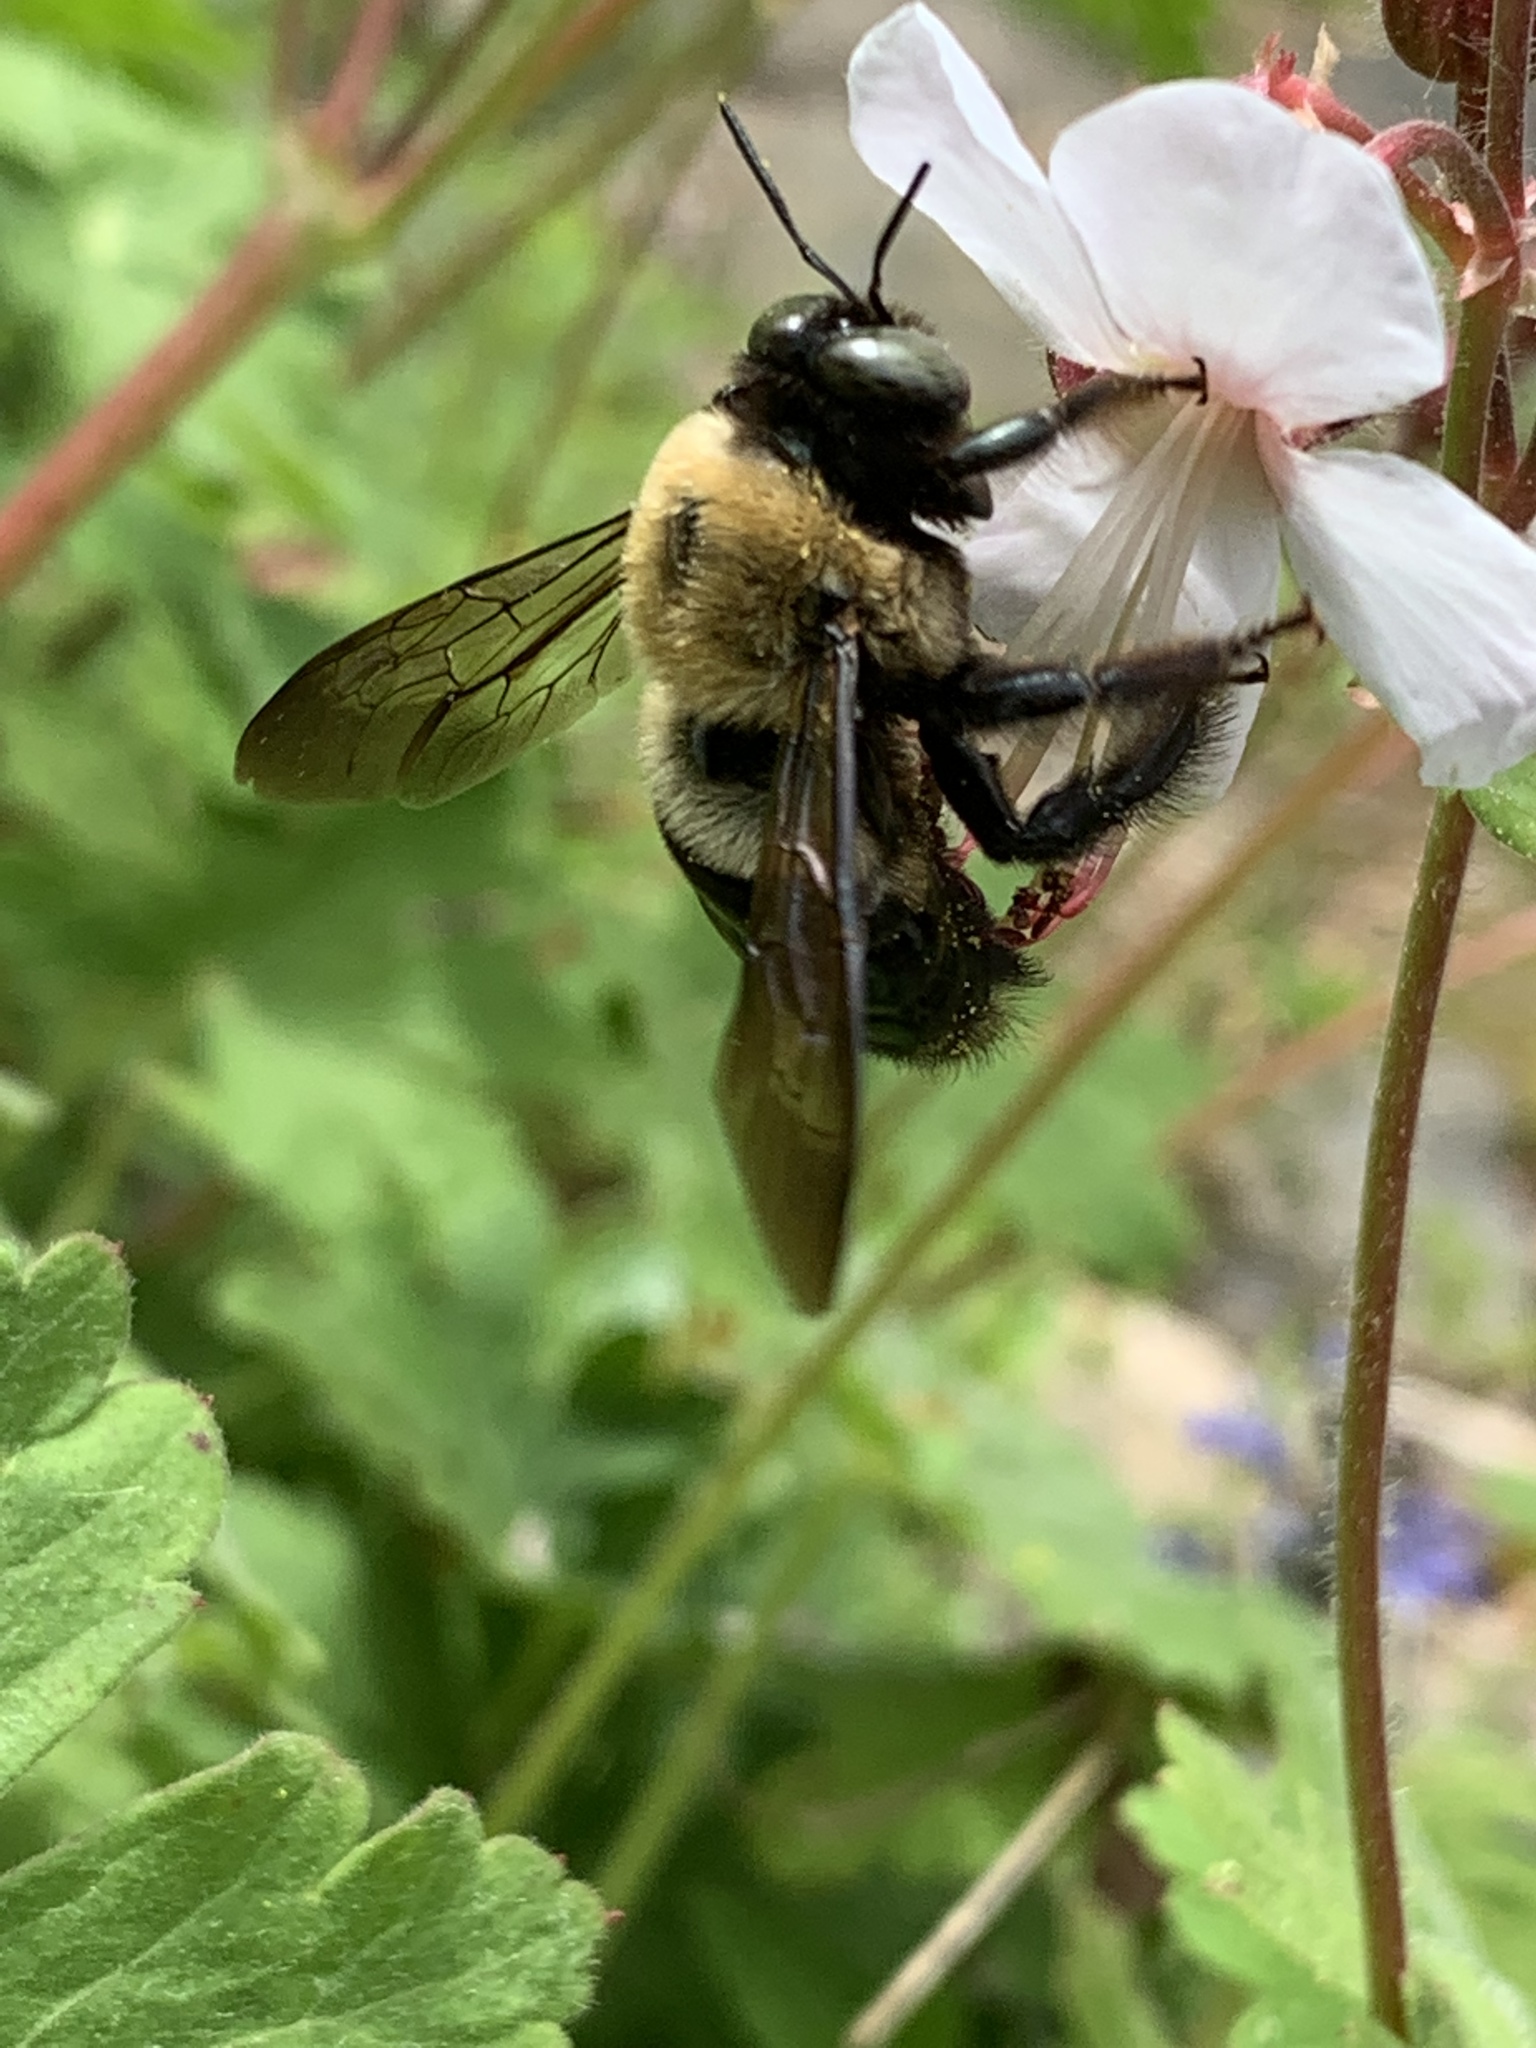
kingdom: Animalia
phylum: Arthropoda
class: Insecta
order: Hymenoptera
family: Apidae
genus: Xylocopa
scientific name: Xylocopa virginica
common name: Carpenter bee
